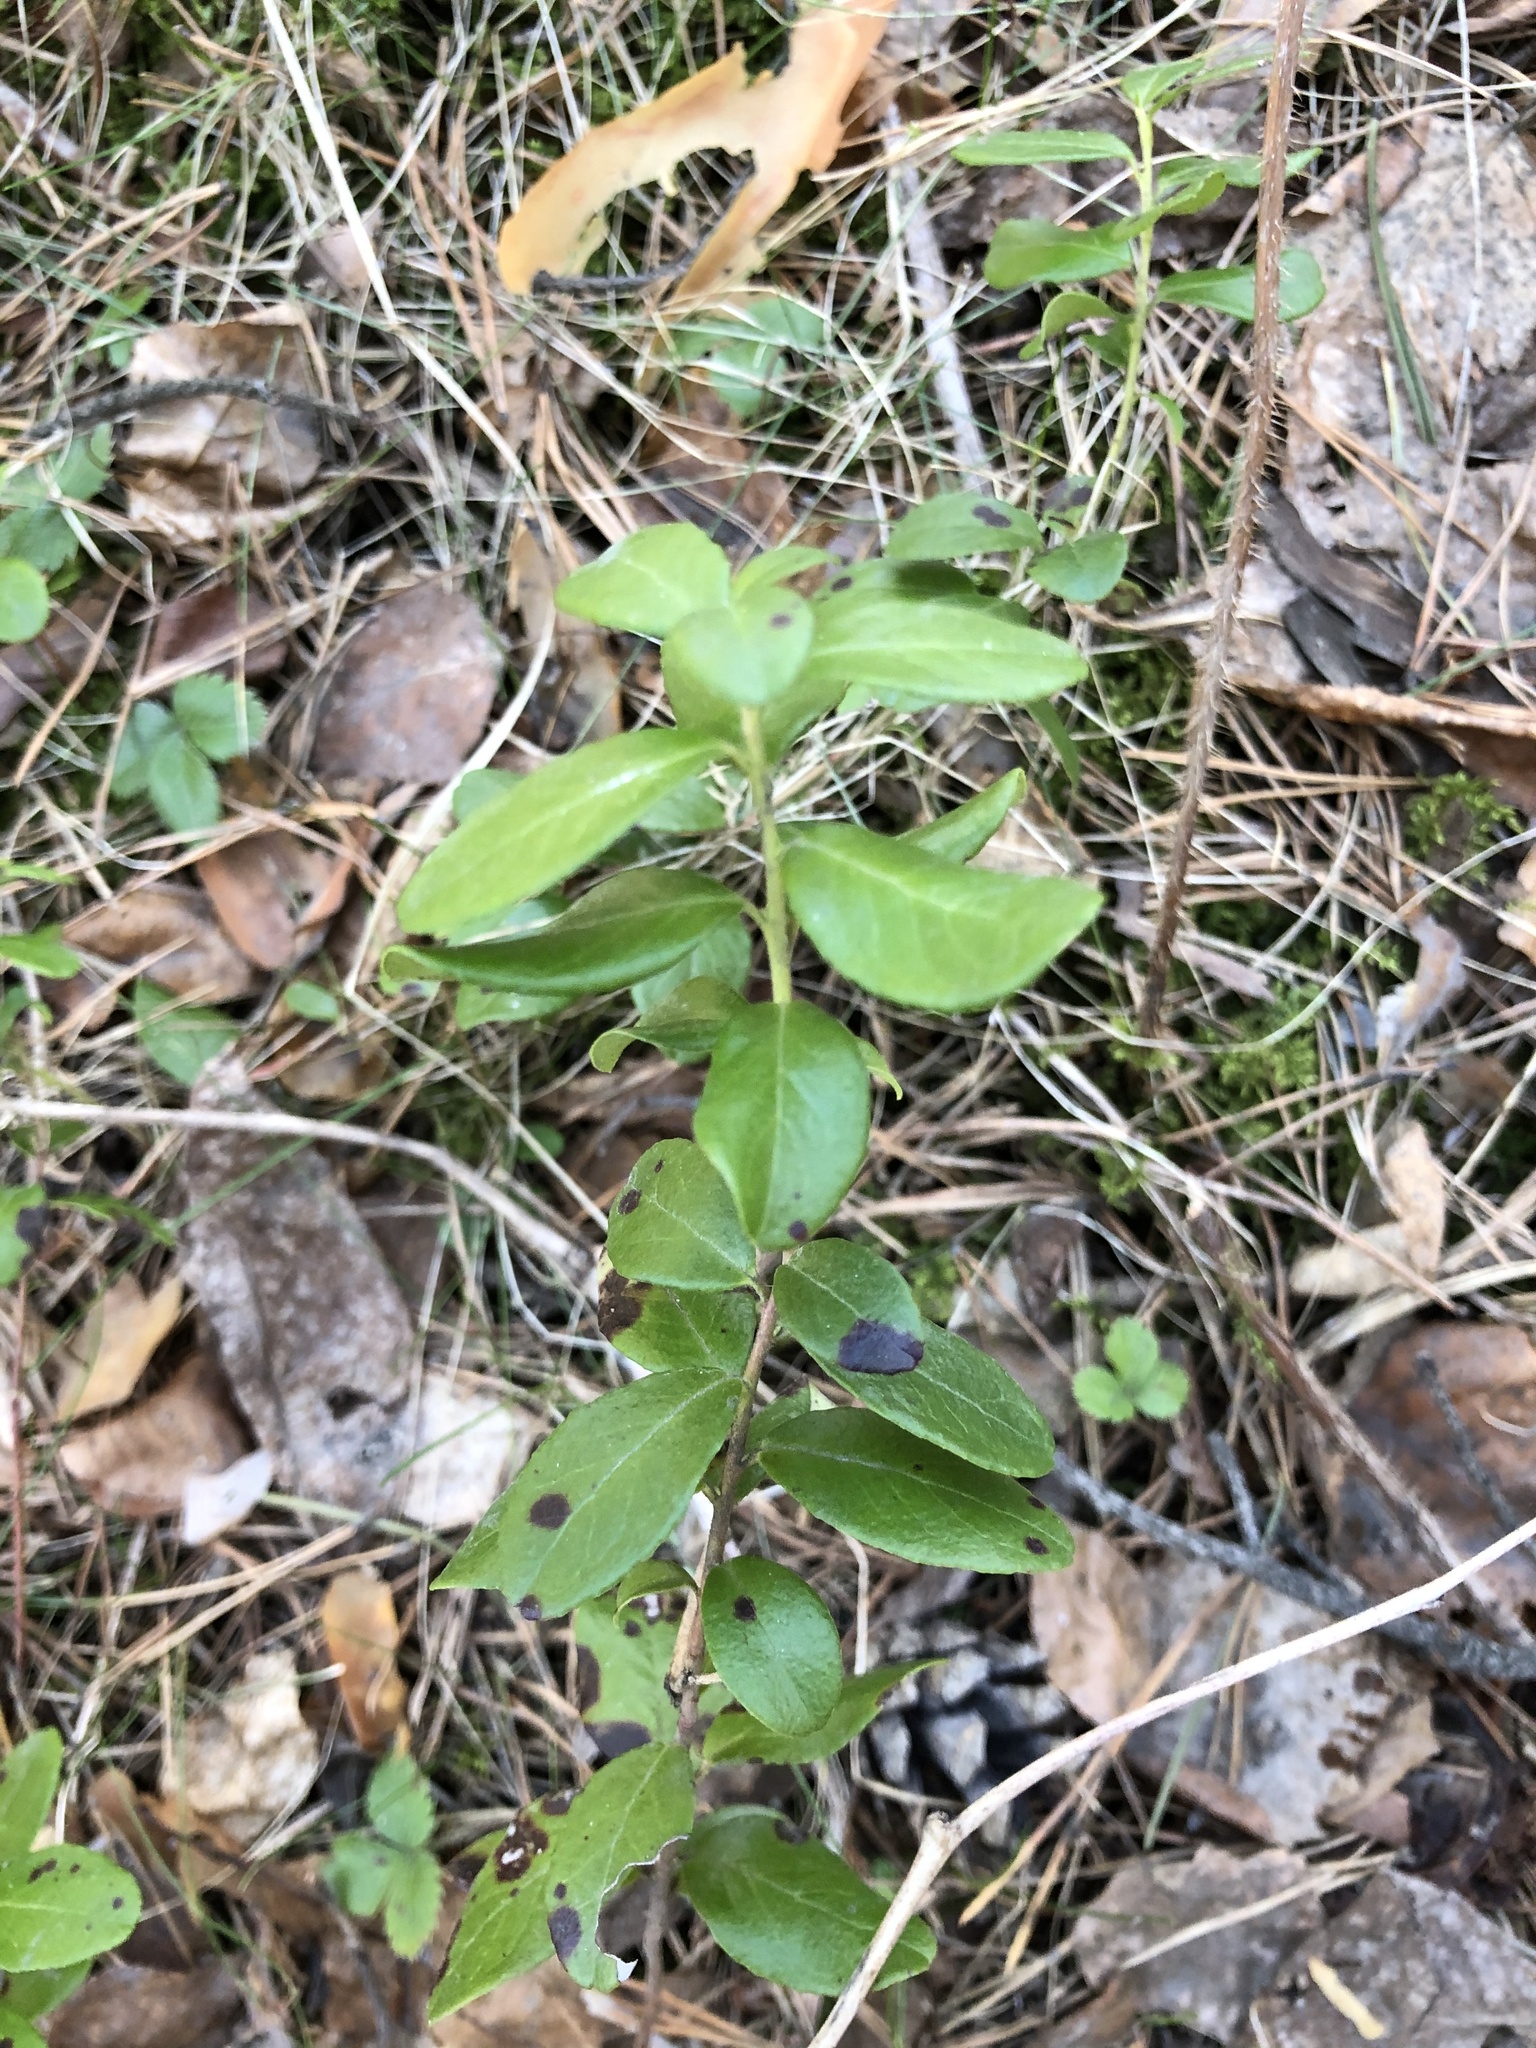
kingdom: Plantae
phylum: Tracheophyta
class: Magnoliopsida
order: Ericales
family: Ericaceae
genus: Vaccinium
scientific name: Vaccinium vitis-idaea
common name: Cowberry
